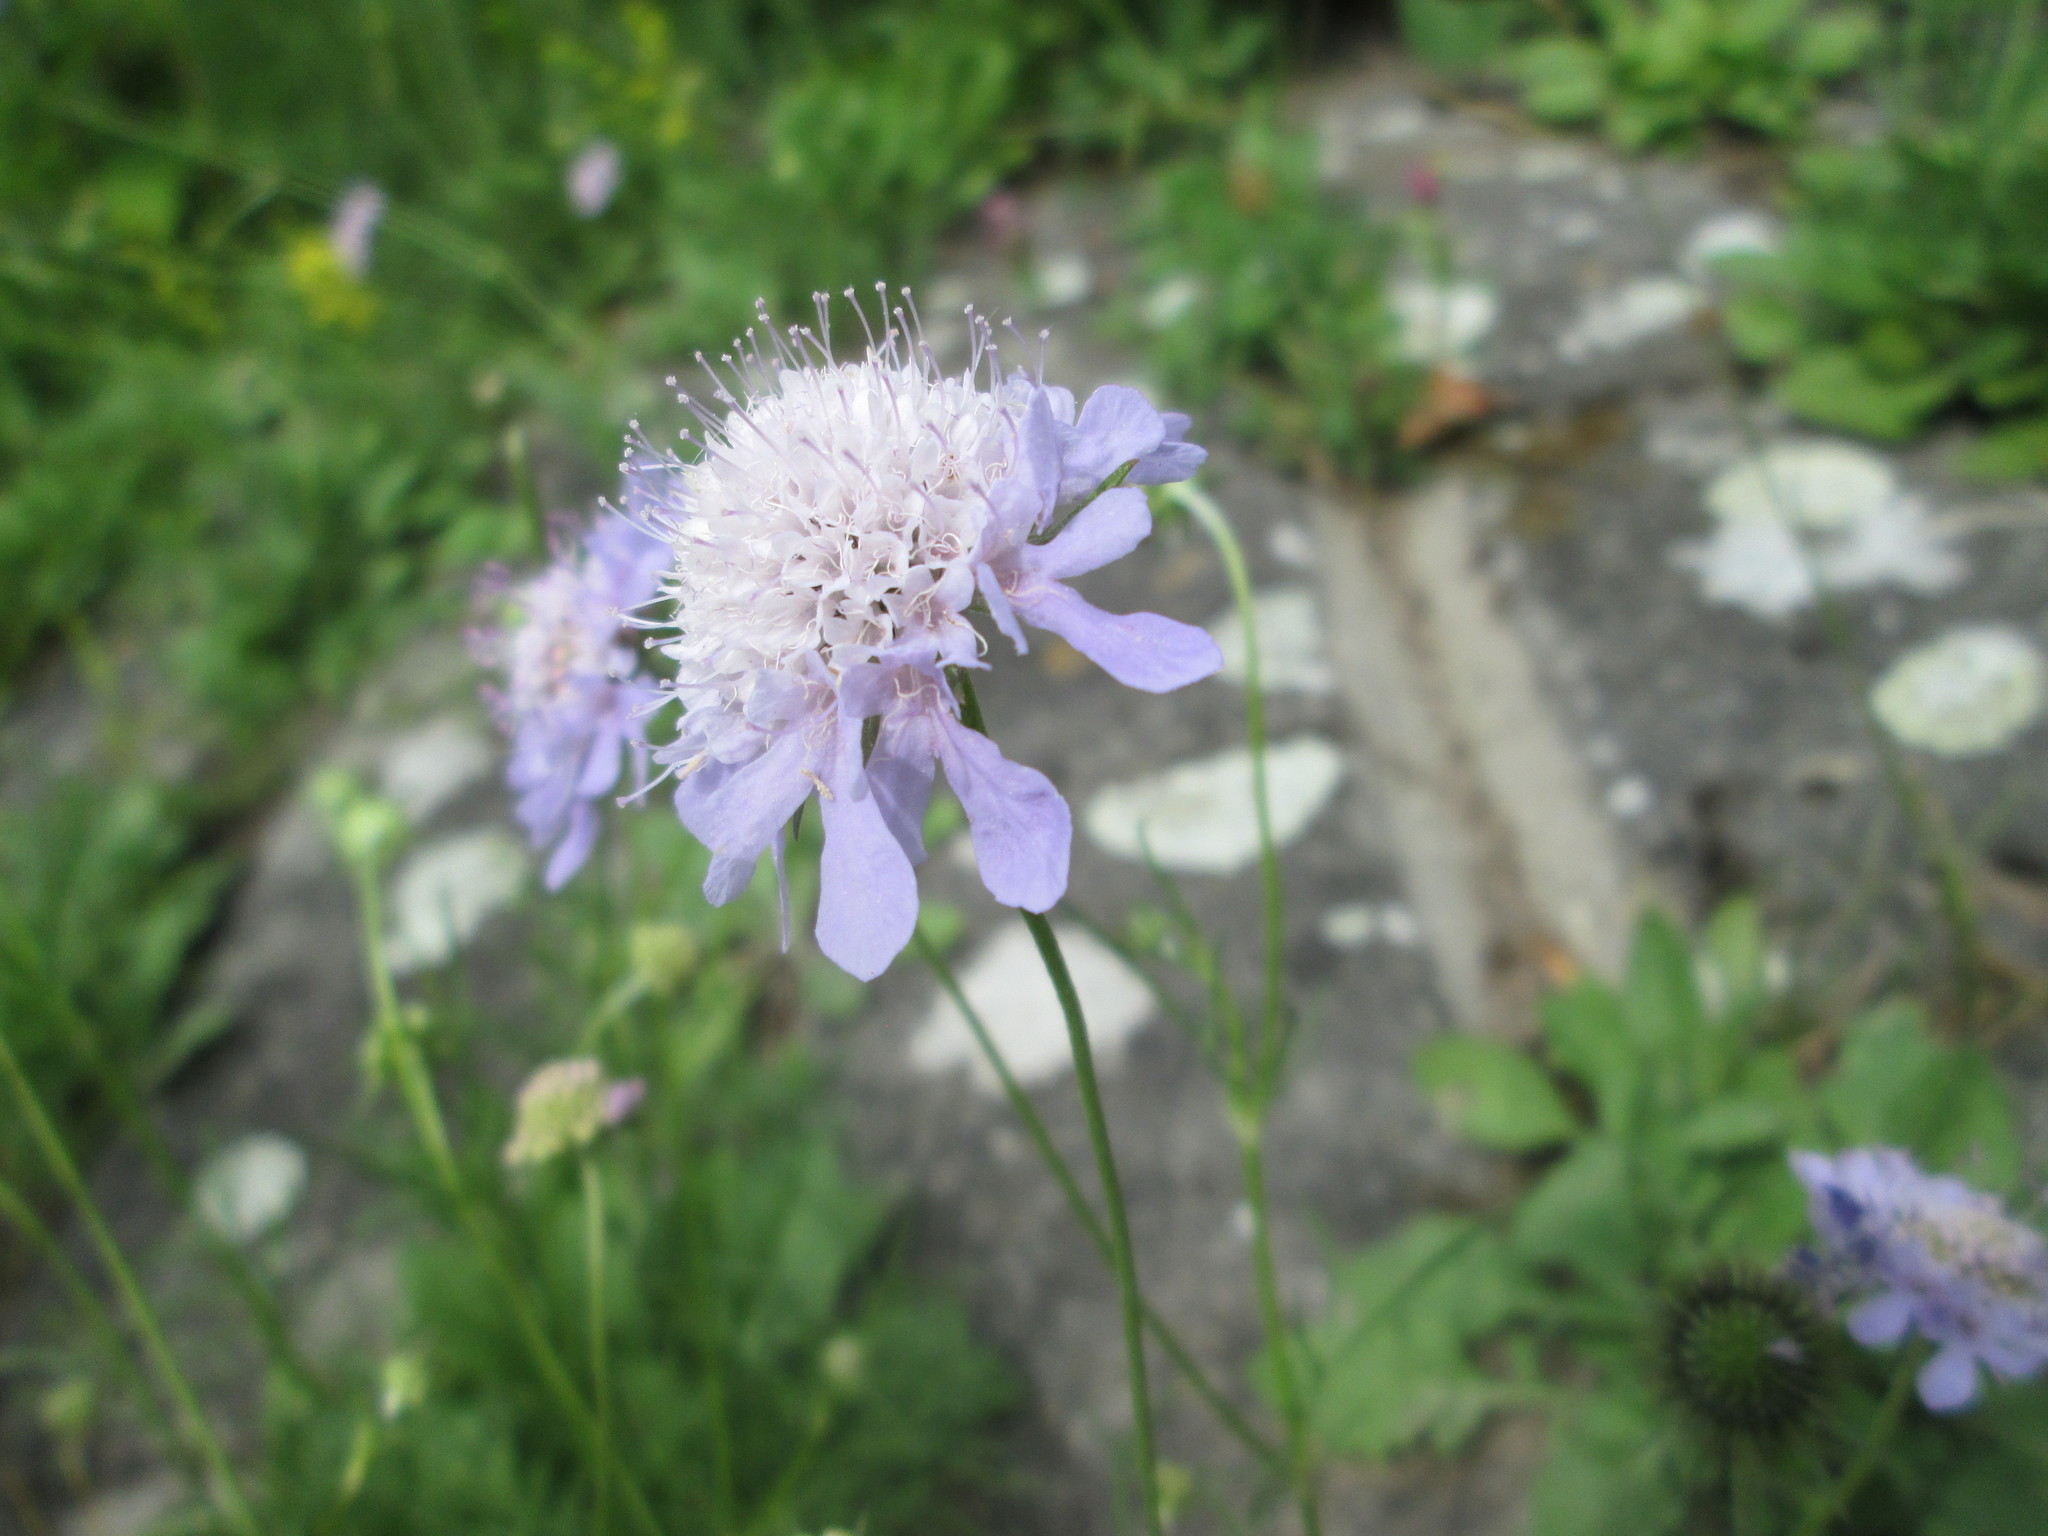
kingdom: Plantae
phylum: Tracheophyta
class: Magnoliopsida
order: Dipsacales
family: Caprifoliaceae
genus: Scabiosa
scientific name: Scabiosa columbaria
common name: Small scabious
